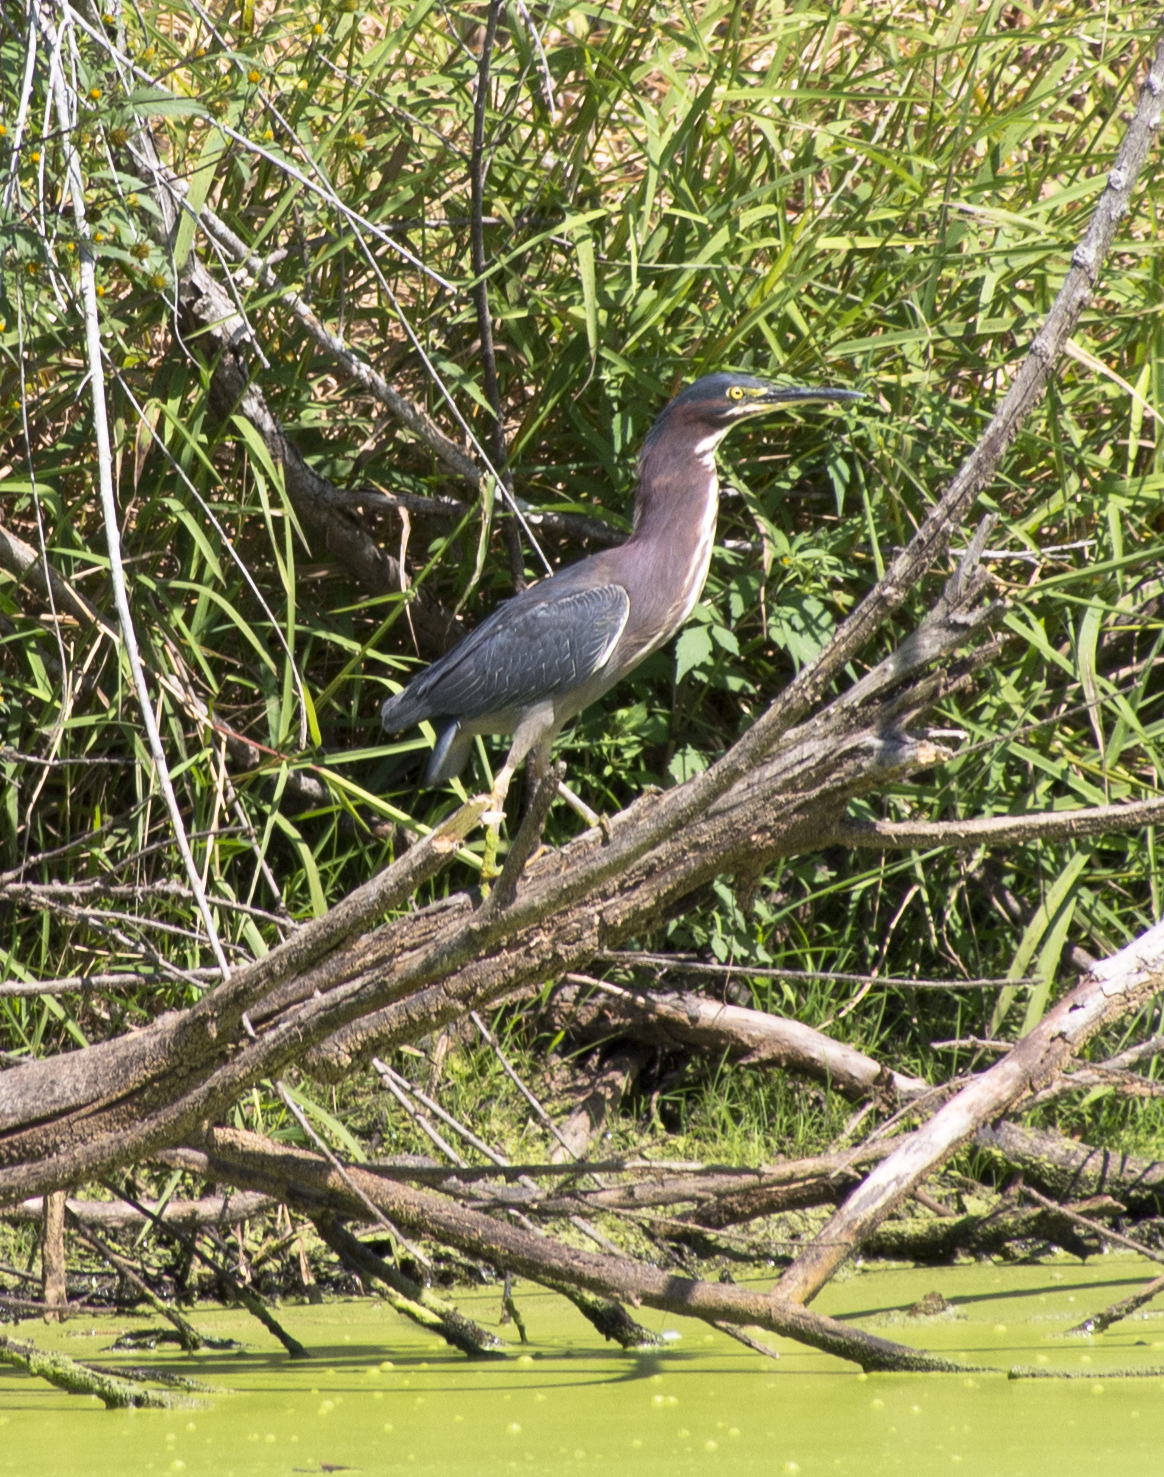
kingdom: Animalia
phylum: Chordata
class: Aves
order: Pelecaniformes
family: Ardeidae
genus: Butorides
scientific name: Butorides virescens
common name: Green heron
